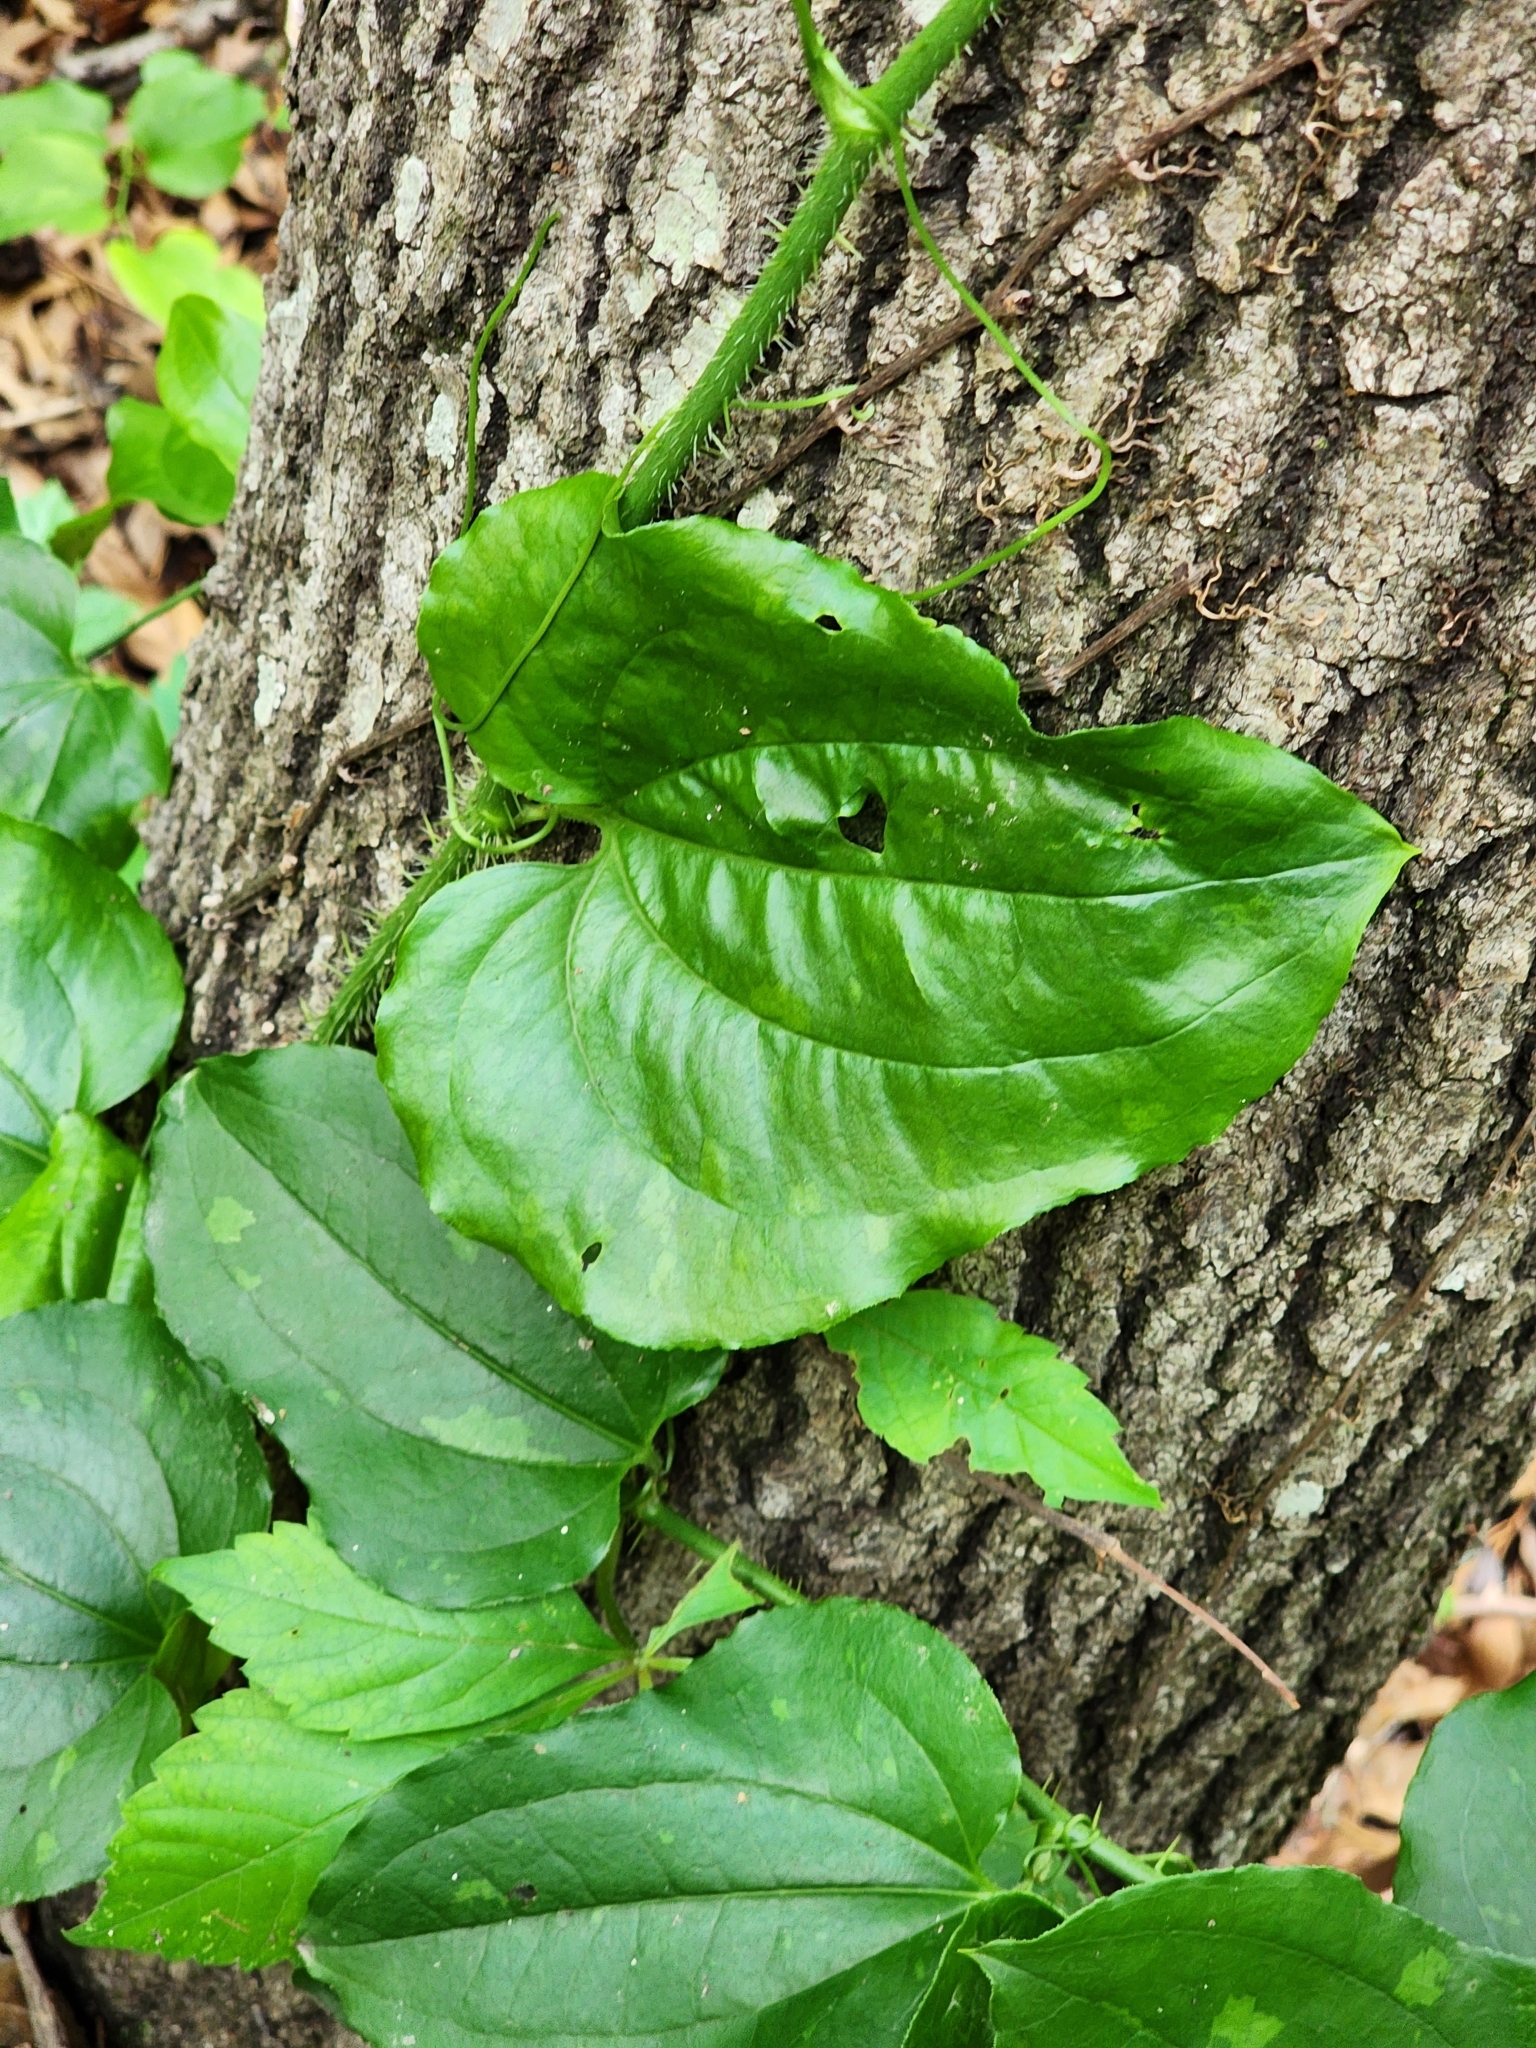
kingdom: Plantae
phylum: Tracheophyta
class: Liliopsida
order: Liliales
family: Smilacaceae
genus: Smilax
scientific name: Smilax tamnoides
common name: Hellfetter
